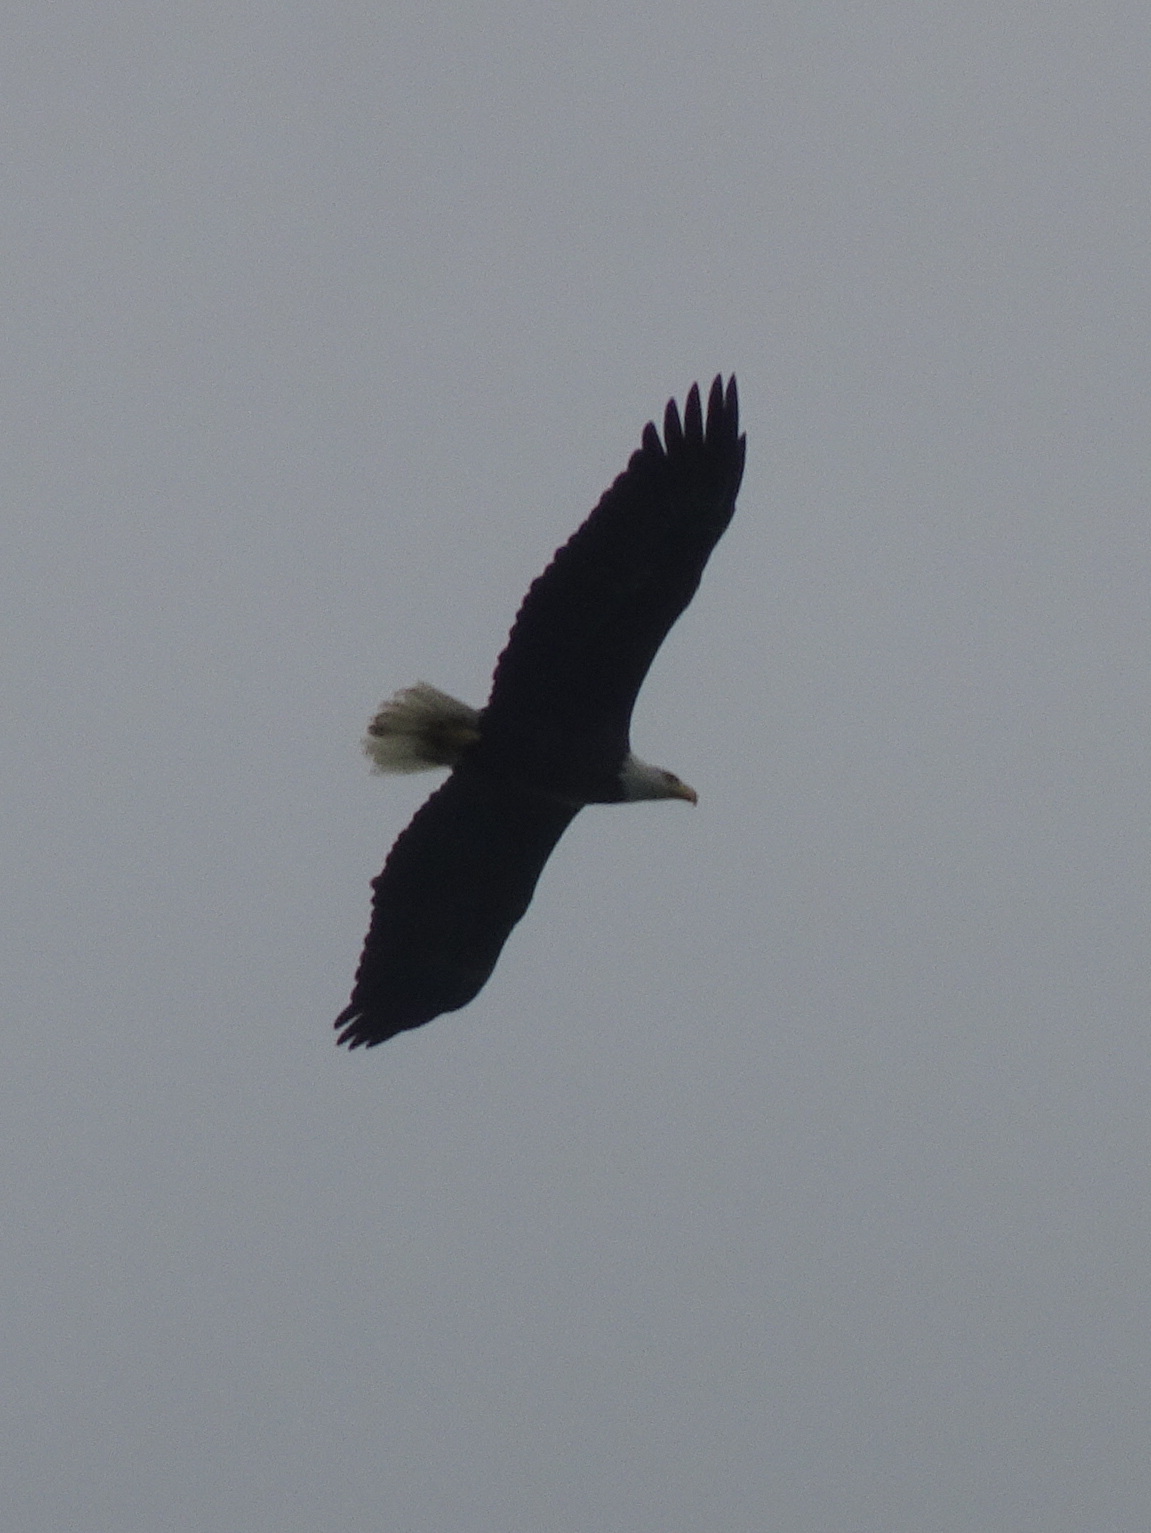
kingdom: Animalia
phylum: Chordata
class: Aves
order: Accipitriformes
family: Accipitridae
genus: Haliaeetus
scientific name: Haliaeetus leucocephalus
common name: Bald eagle
